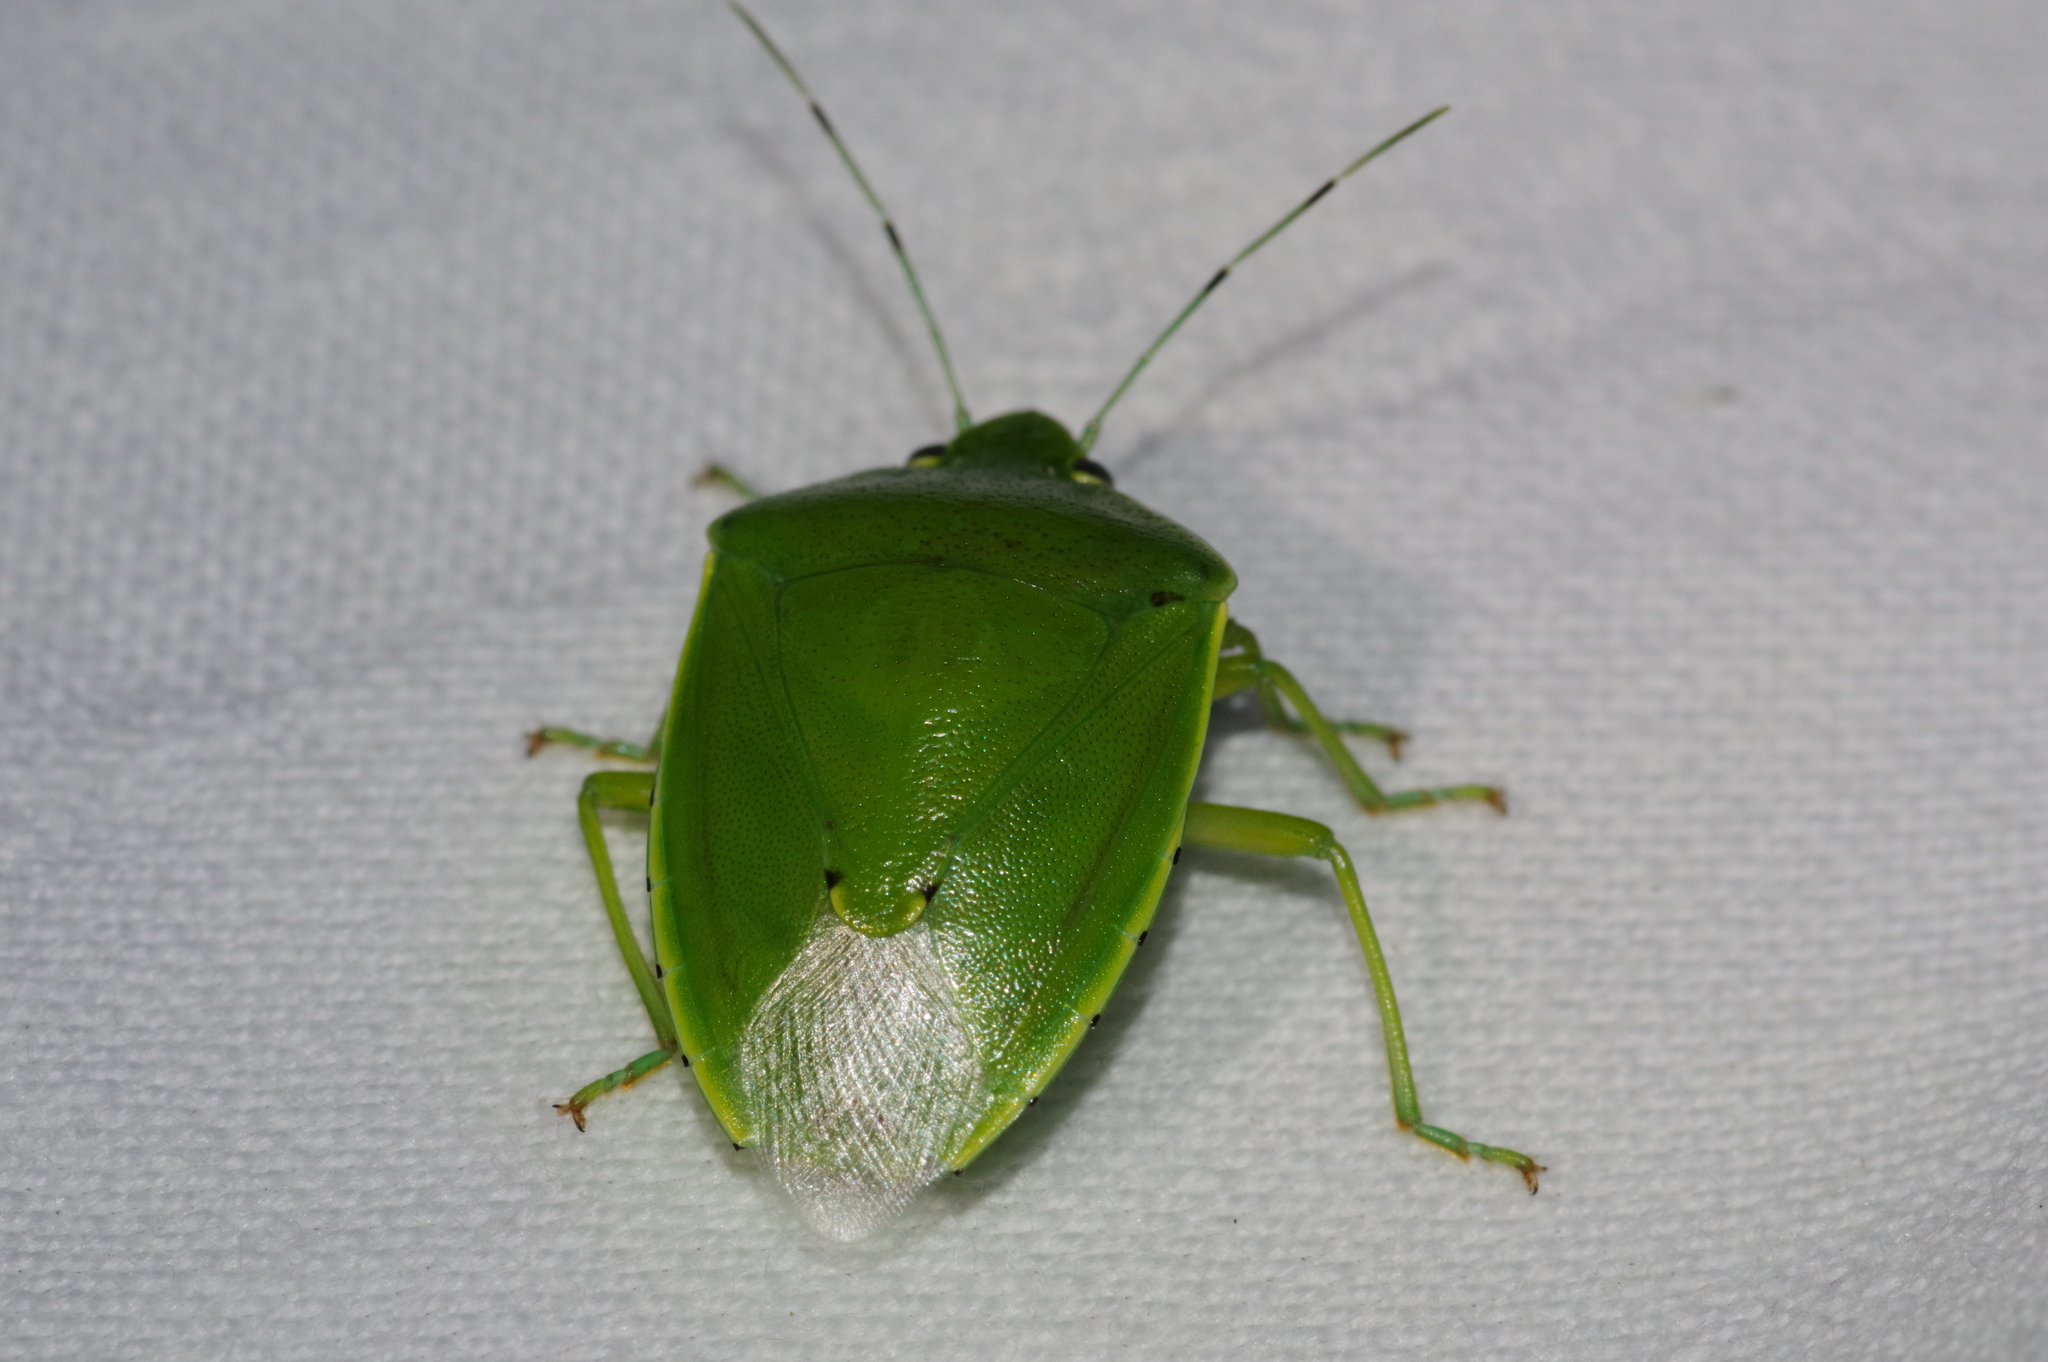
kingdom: Animalia
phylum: Arthropoda
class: Insecta
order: Hemiptera
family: Pentatomidae
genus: Glaucias
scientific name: Glaucias subpunctatus
